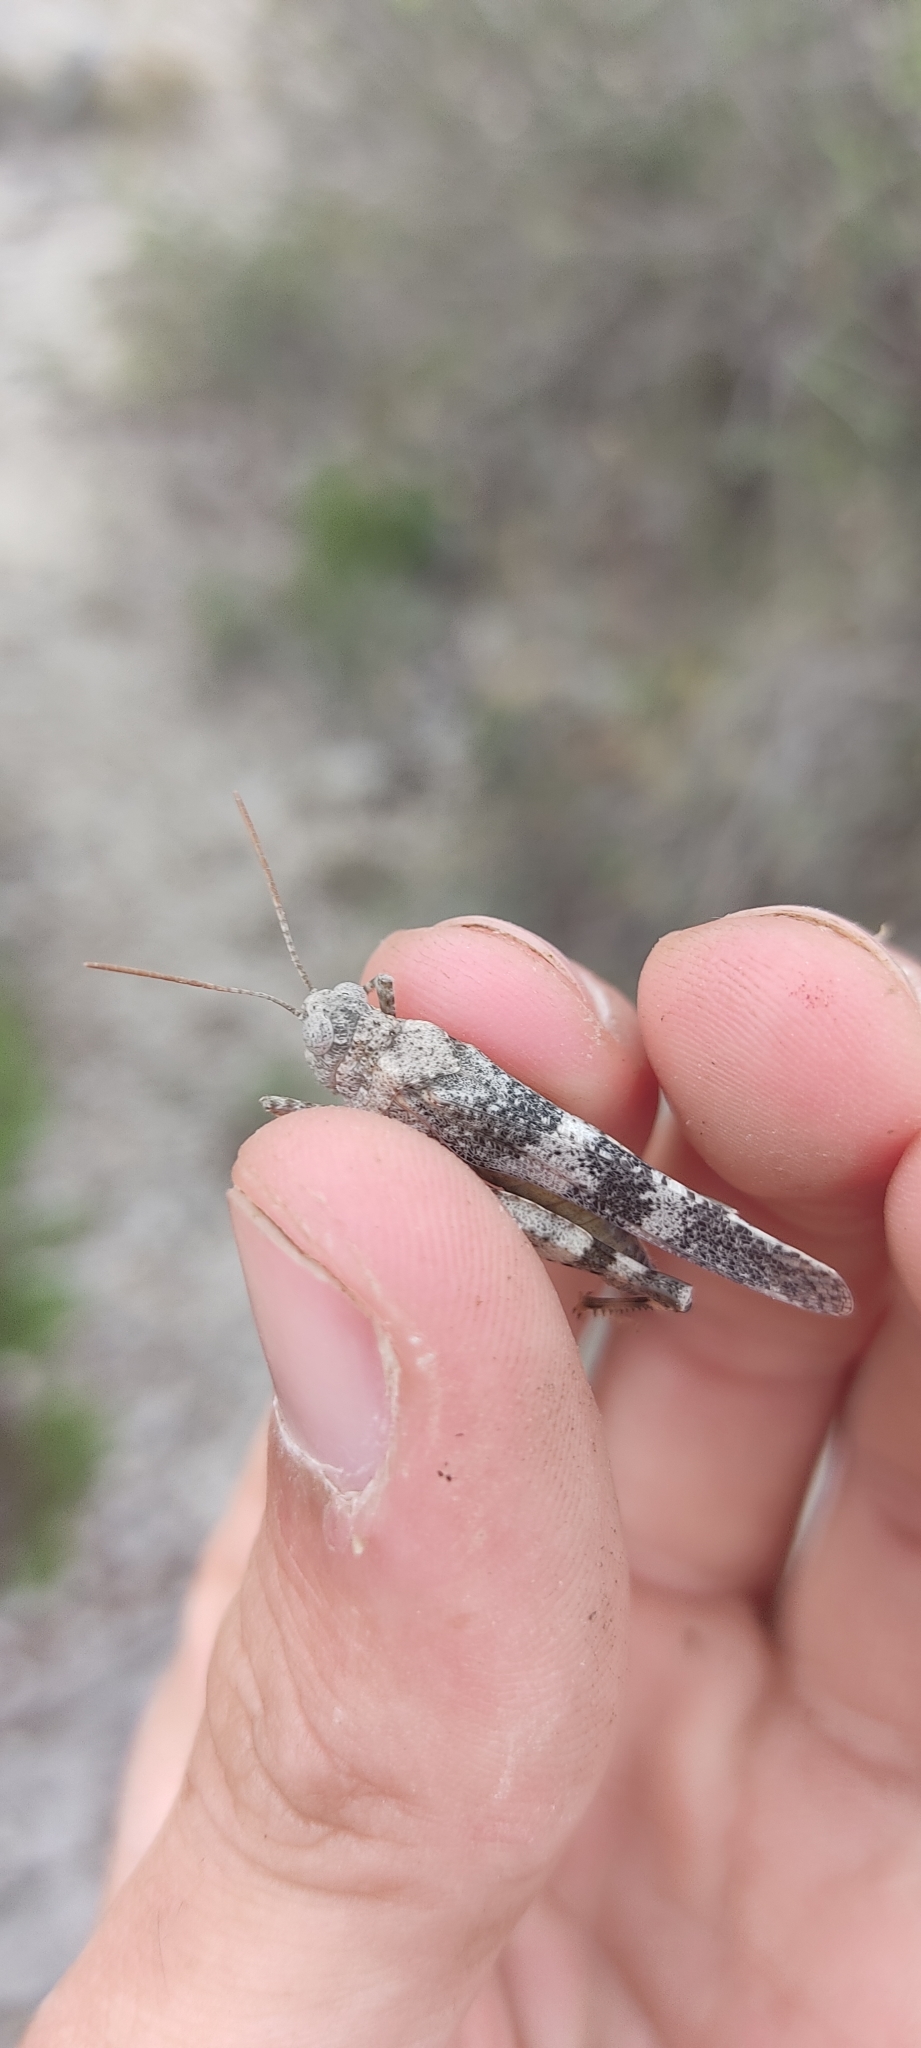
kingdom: Animalia
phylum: Arthropoda
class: Insecta
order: Orthoptera
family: Acrididae
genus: Oedipoda
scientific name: Oedipoda germanica
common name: Red band-winged grasshopper
